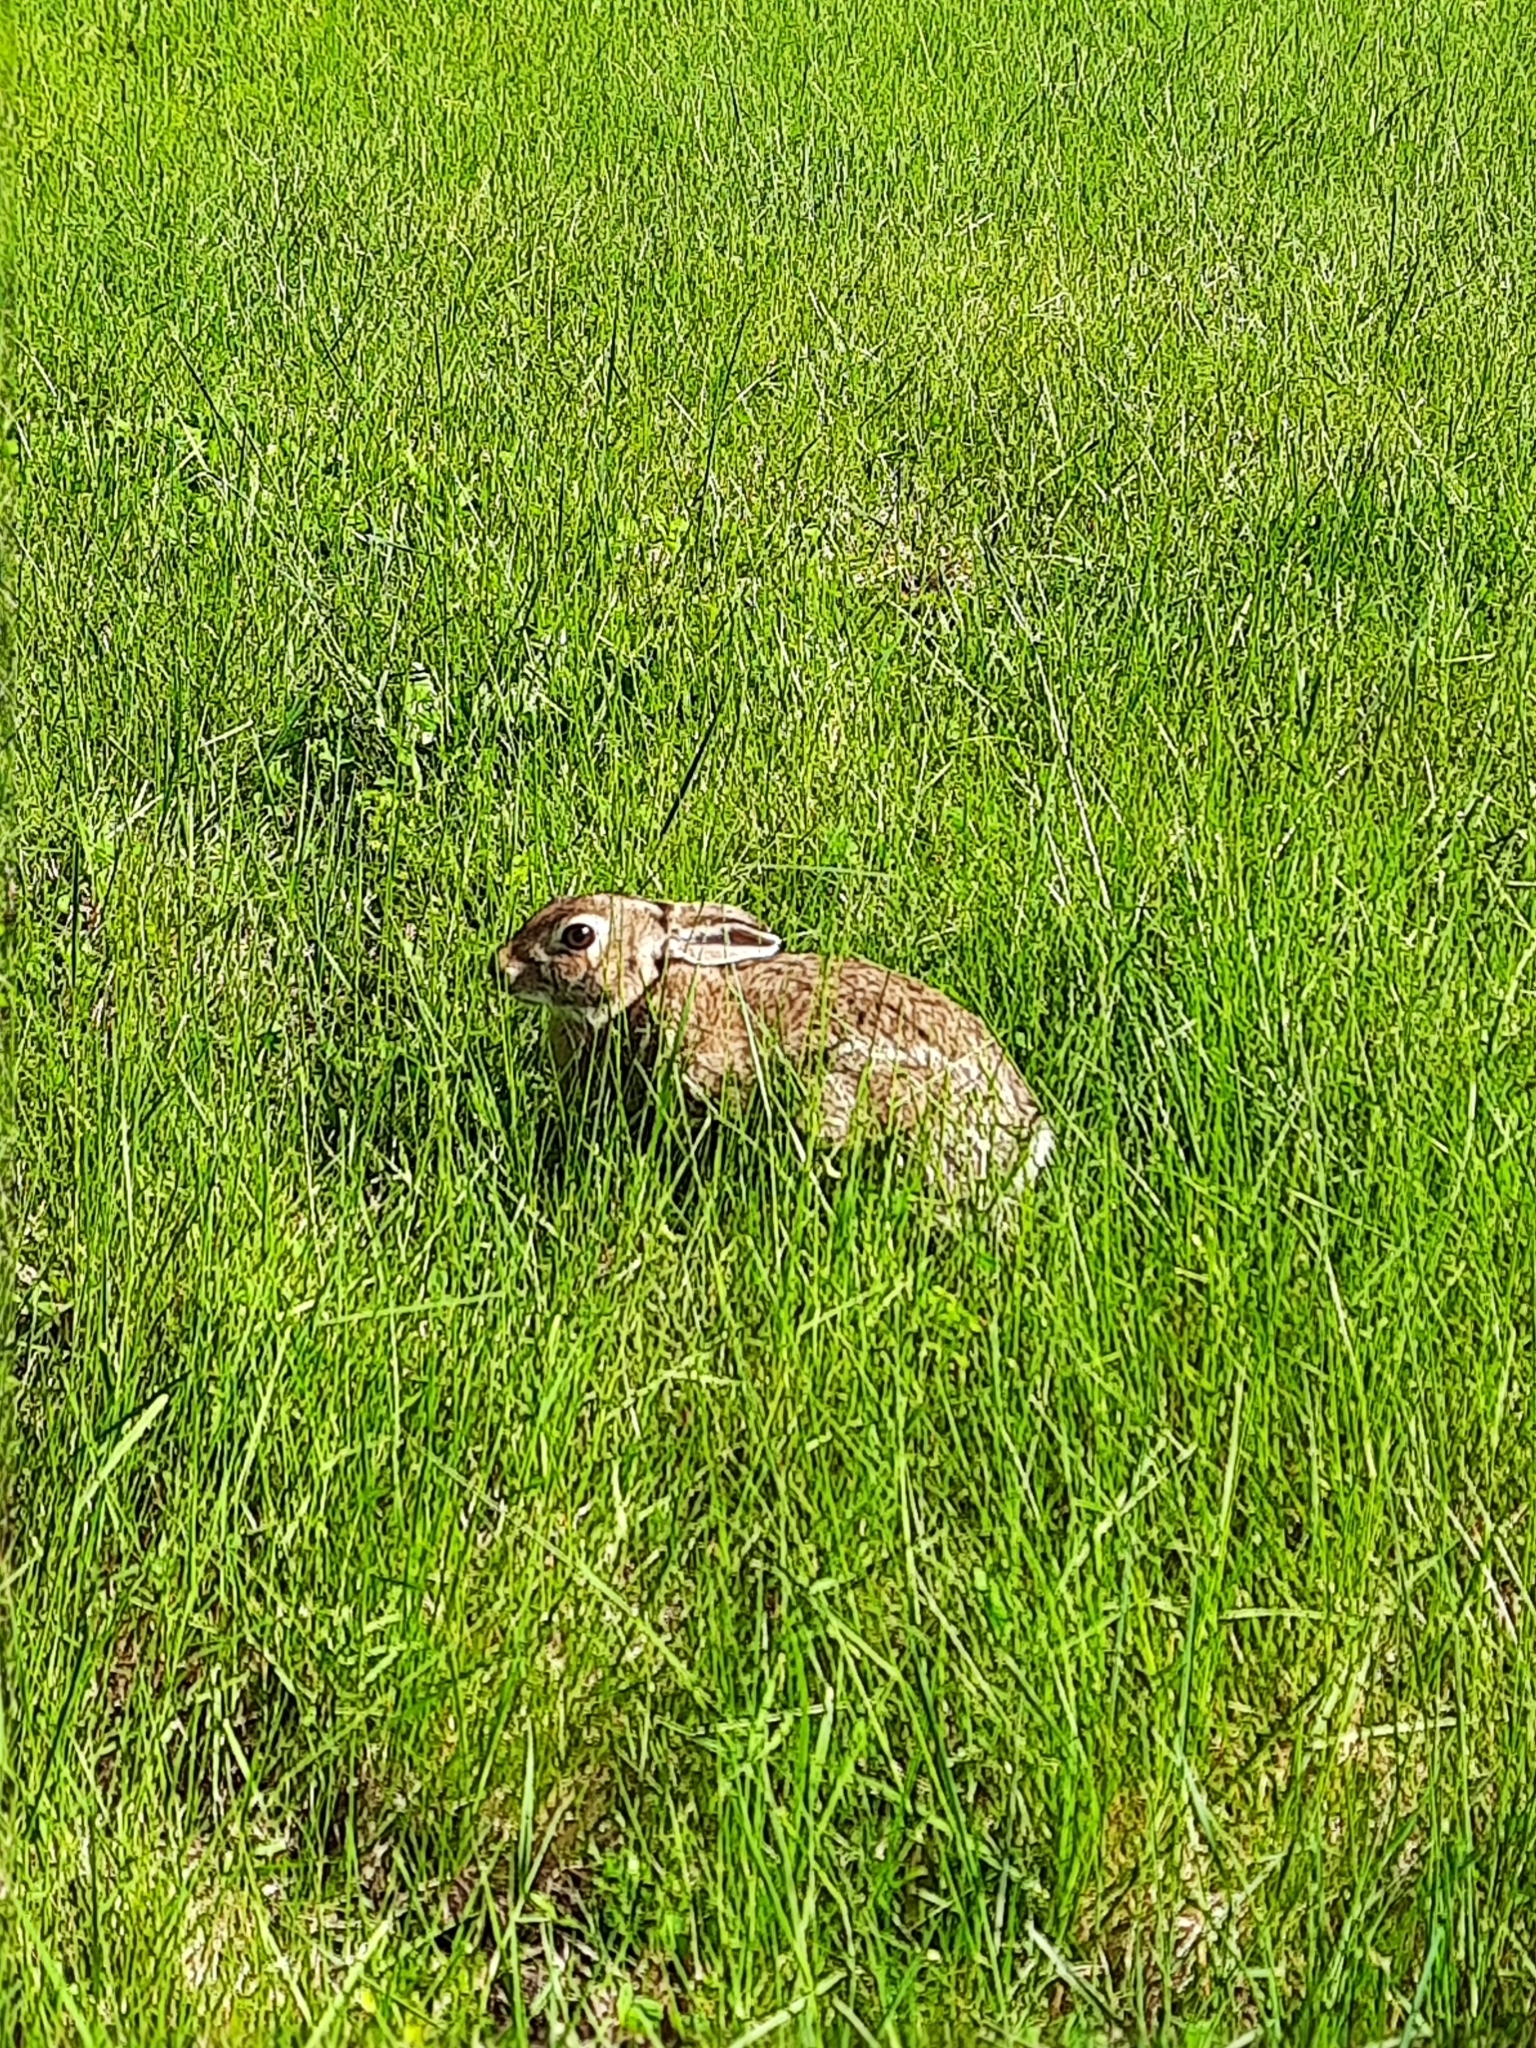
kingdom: Animalia
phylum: Chordata
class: Mammalia
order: Lagomorpha
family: Leporidae
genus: Sylvilagus
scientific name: Sylvilagus floridanus
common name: Eastern cottontail
